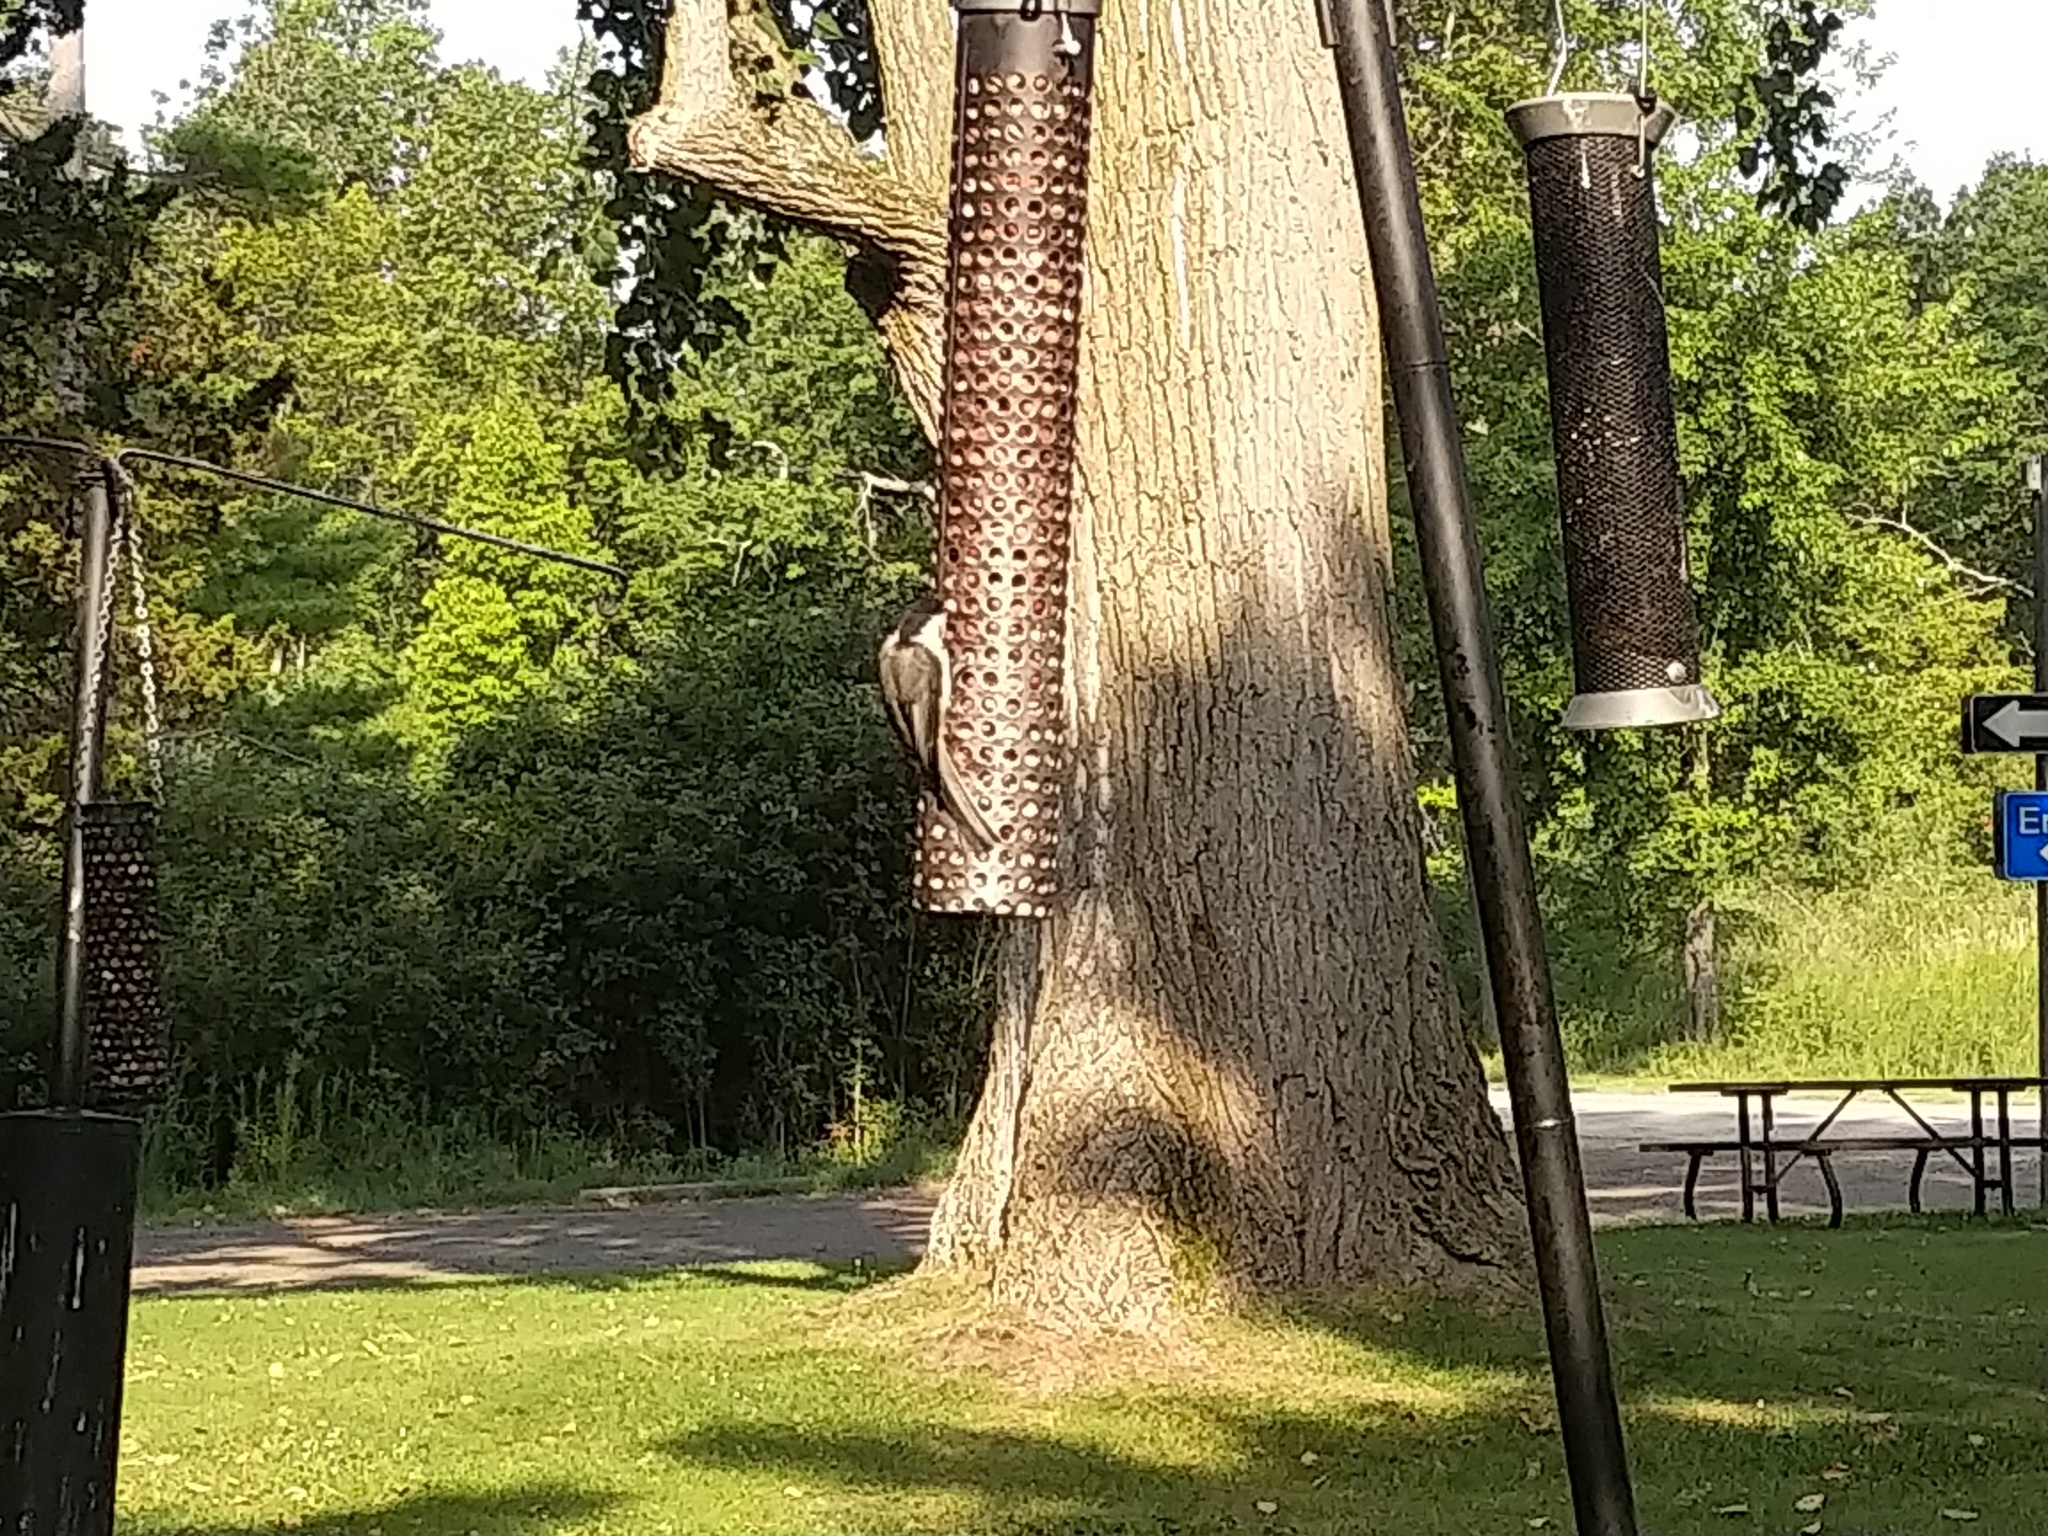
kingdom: Animalia
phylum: Chordata
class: Aves
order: Passeriformes
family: Paridae
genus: Poecile
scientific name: Poecile atricapillus
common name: Black-capped chickadee
